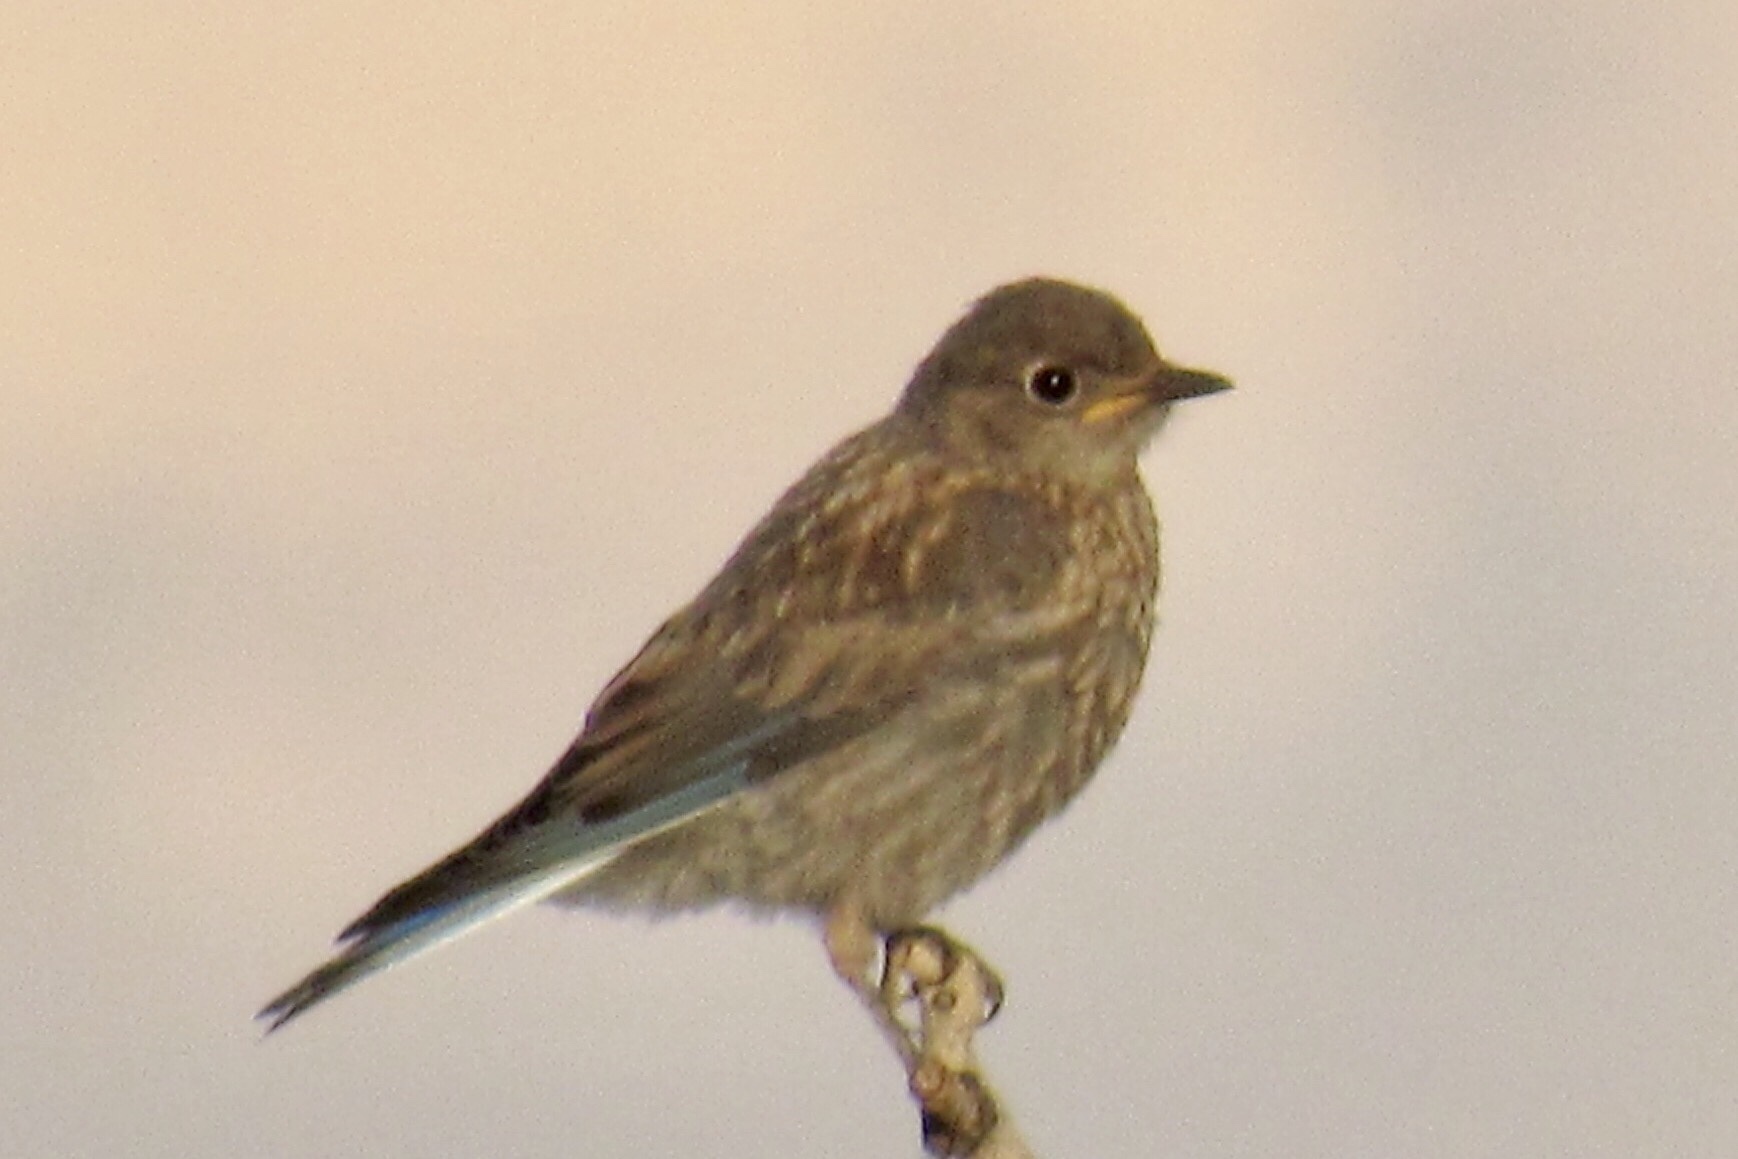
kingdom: Animalia
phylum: Chordata
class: Aves
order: Passeriformes
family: Turdidae
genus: Sialia
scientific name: Sialia mexicana
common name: Western bluebird
